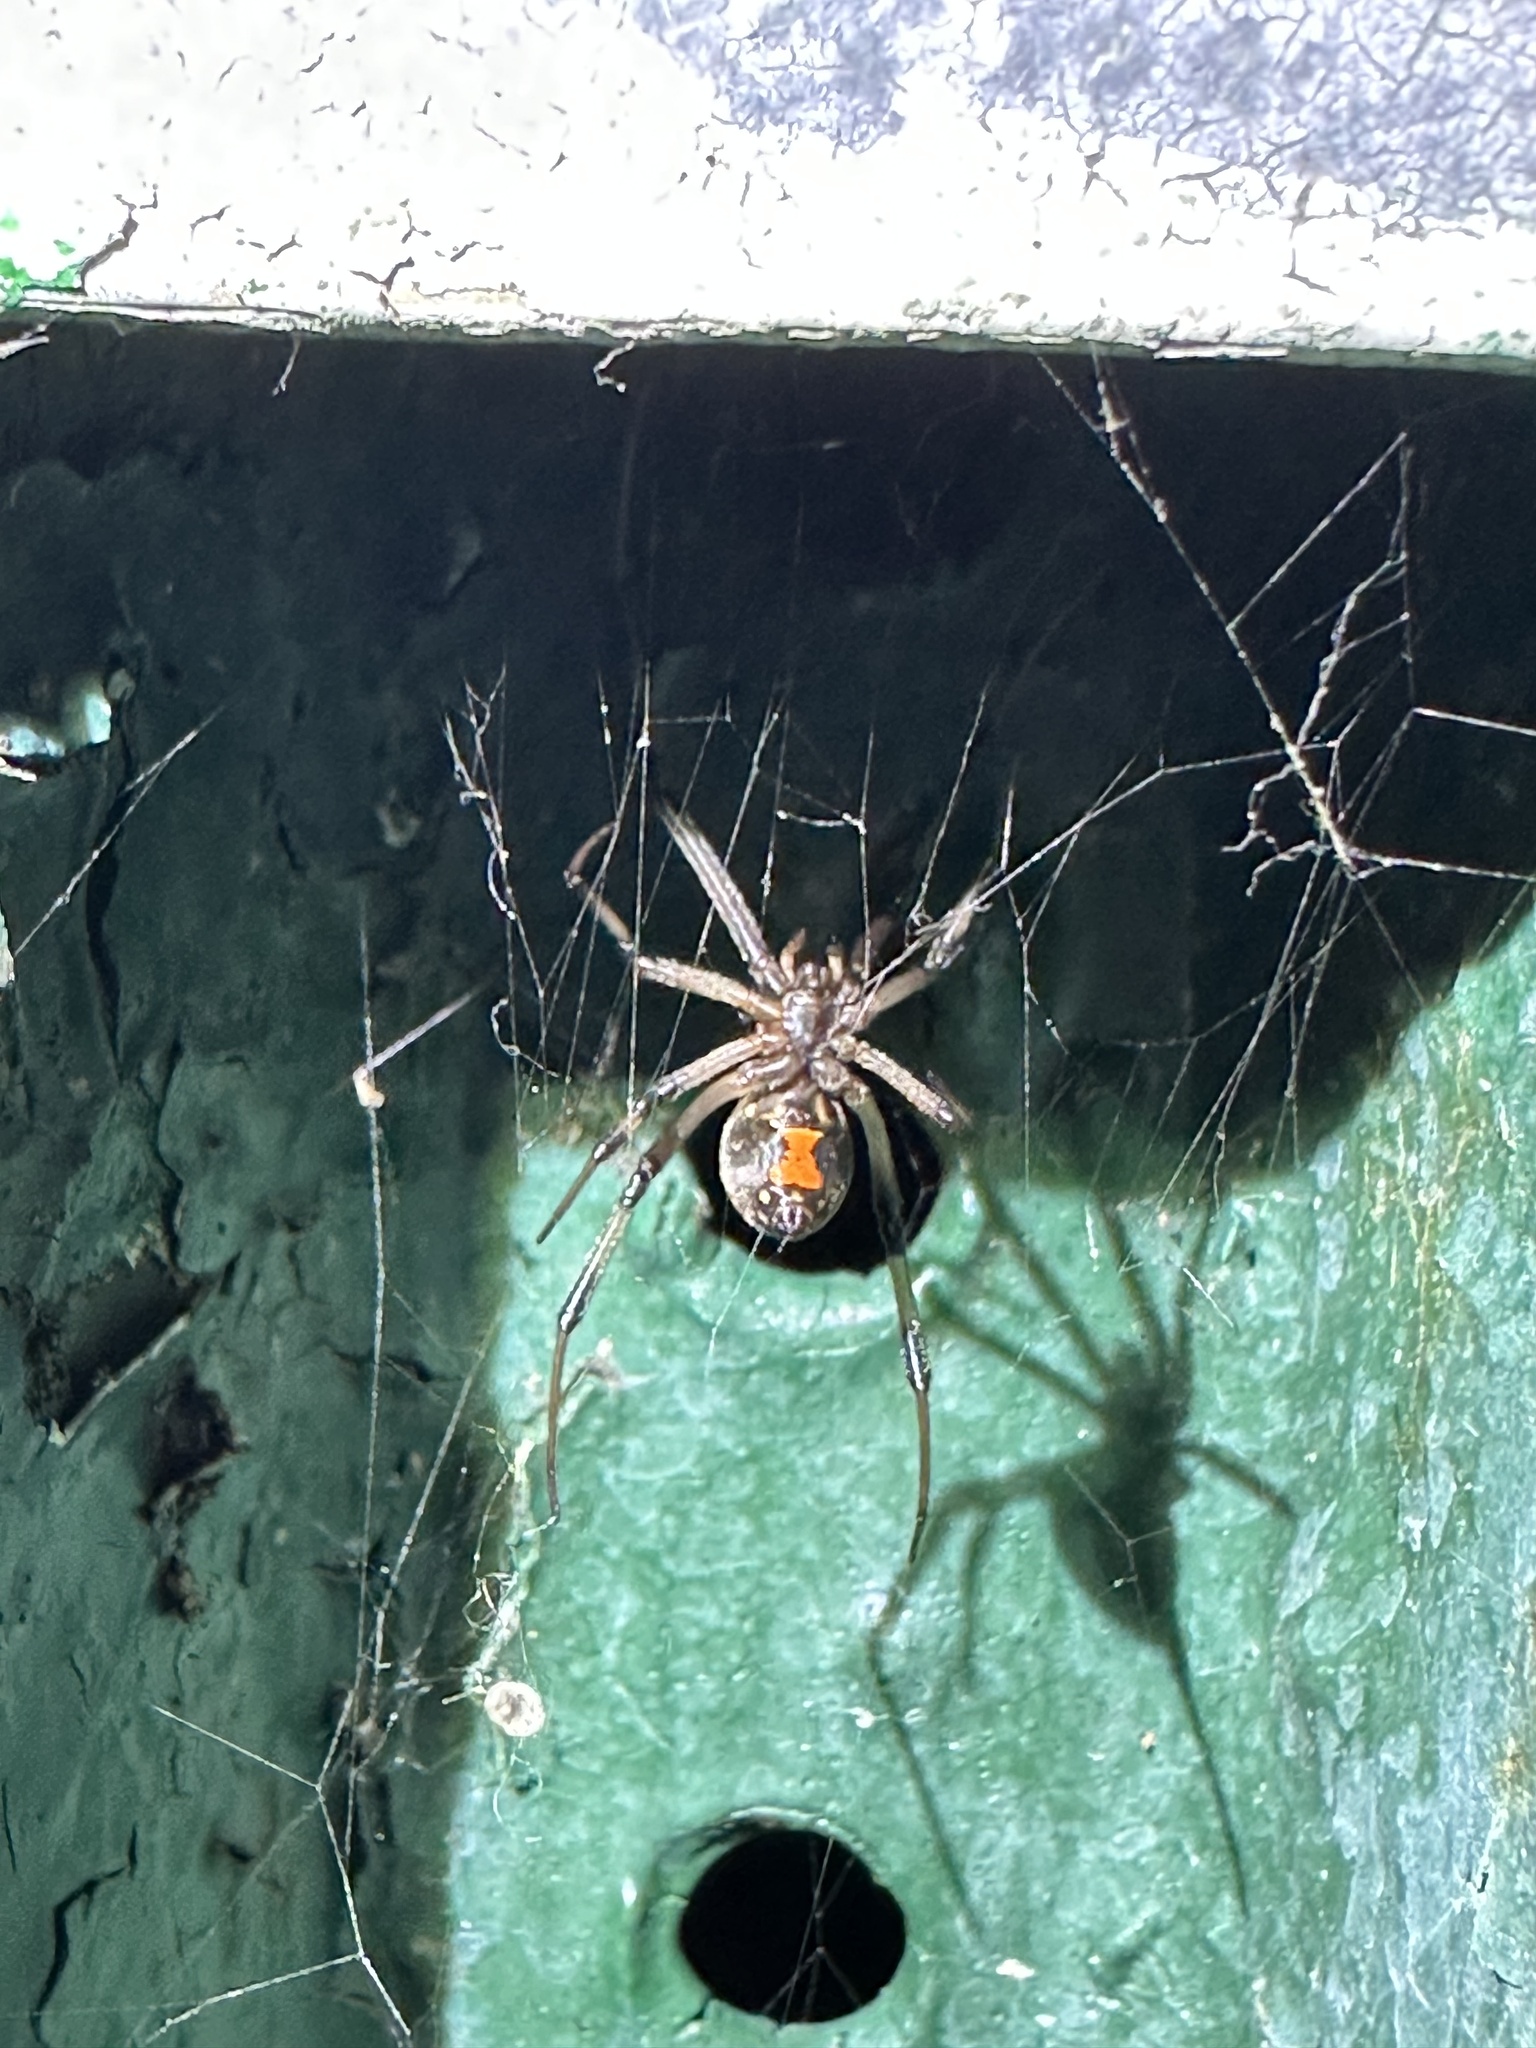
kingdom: Animalia
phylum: Arthropoda
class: Arachnida
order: Araneae
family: Theridiidae
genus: Latrodectus
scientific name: Latrodectus geometricus
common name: Brown widow spider
